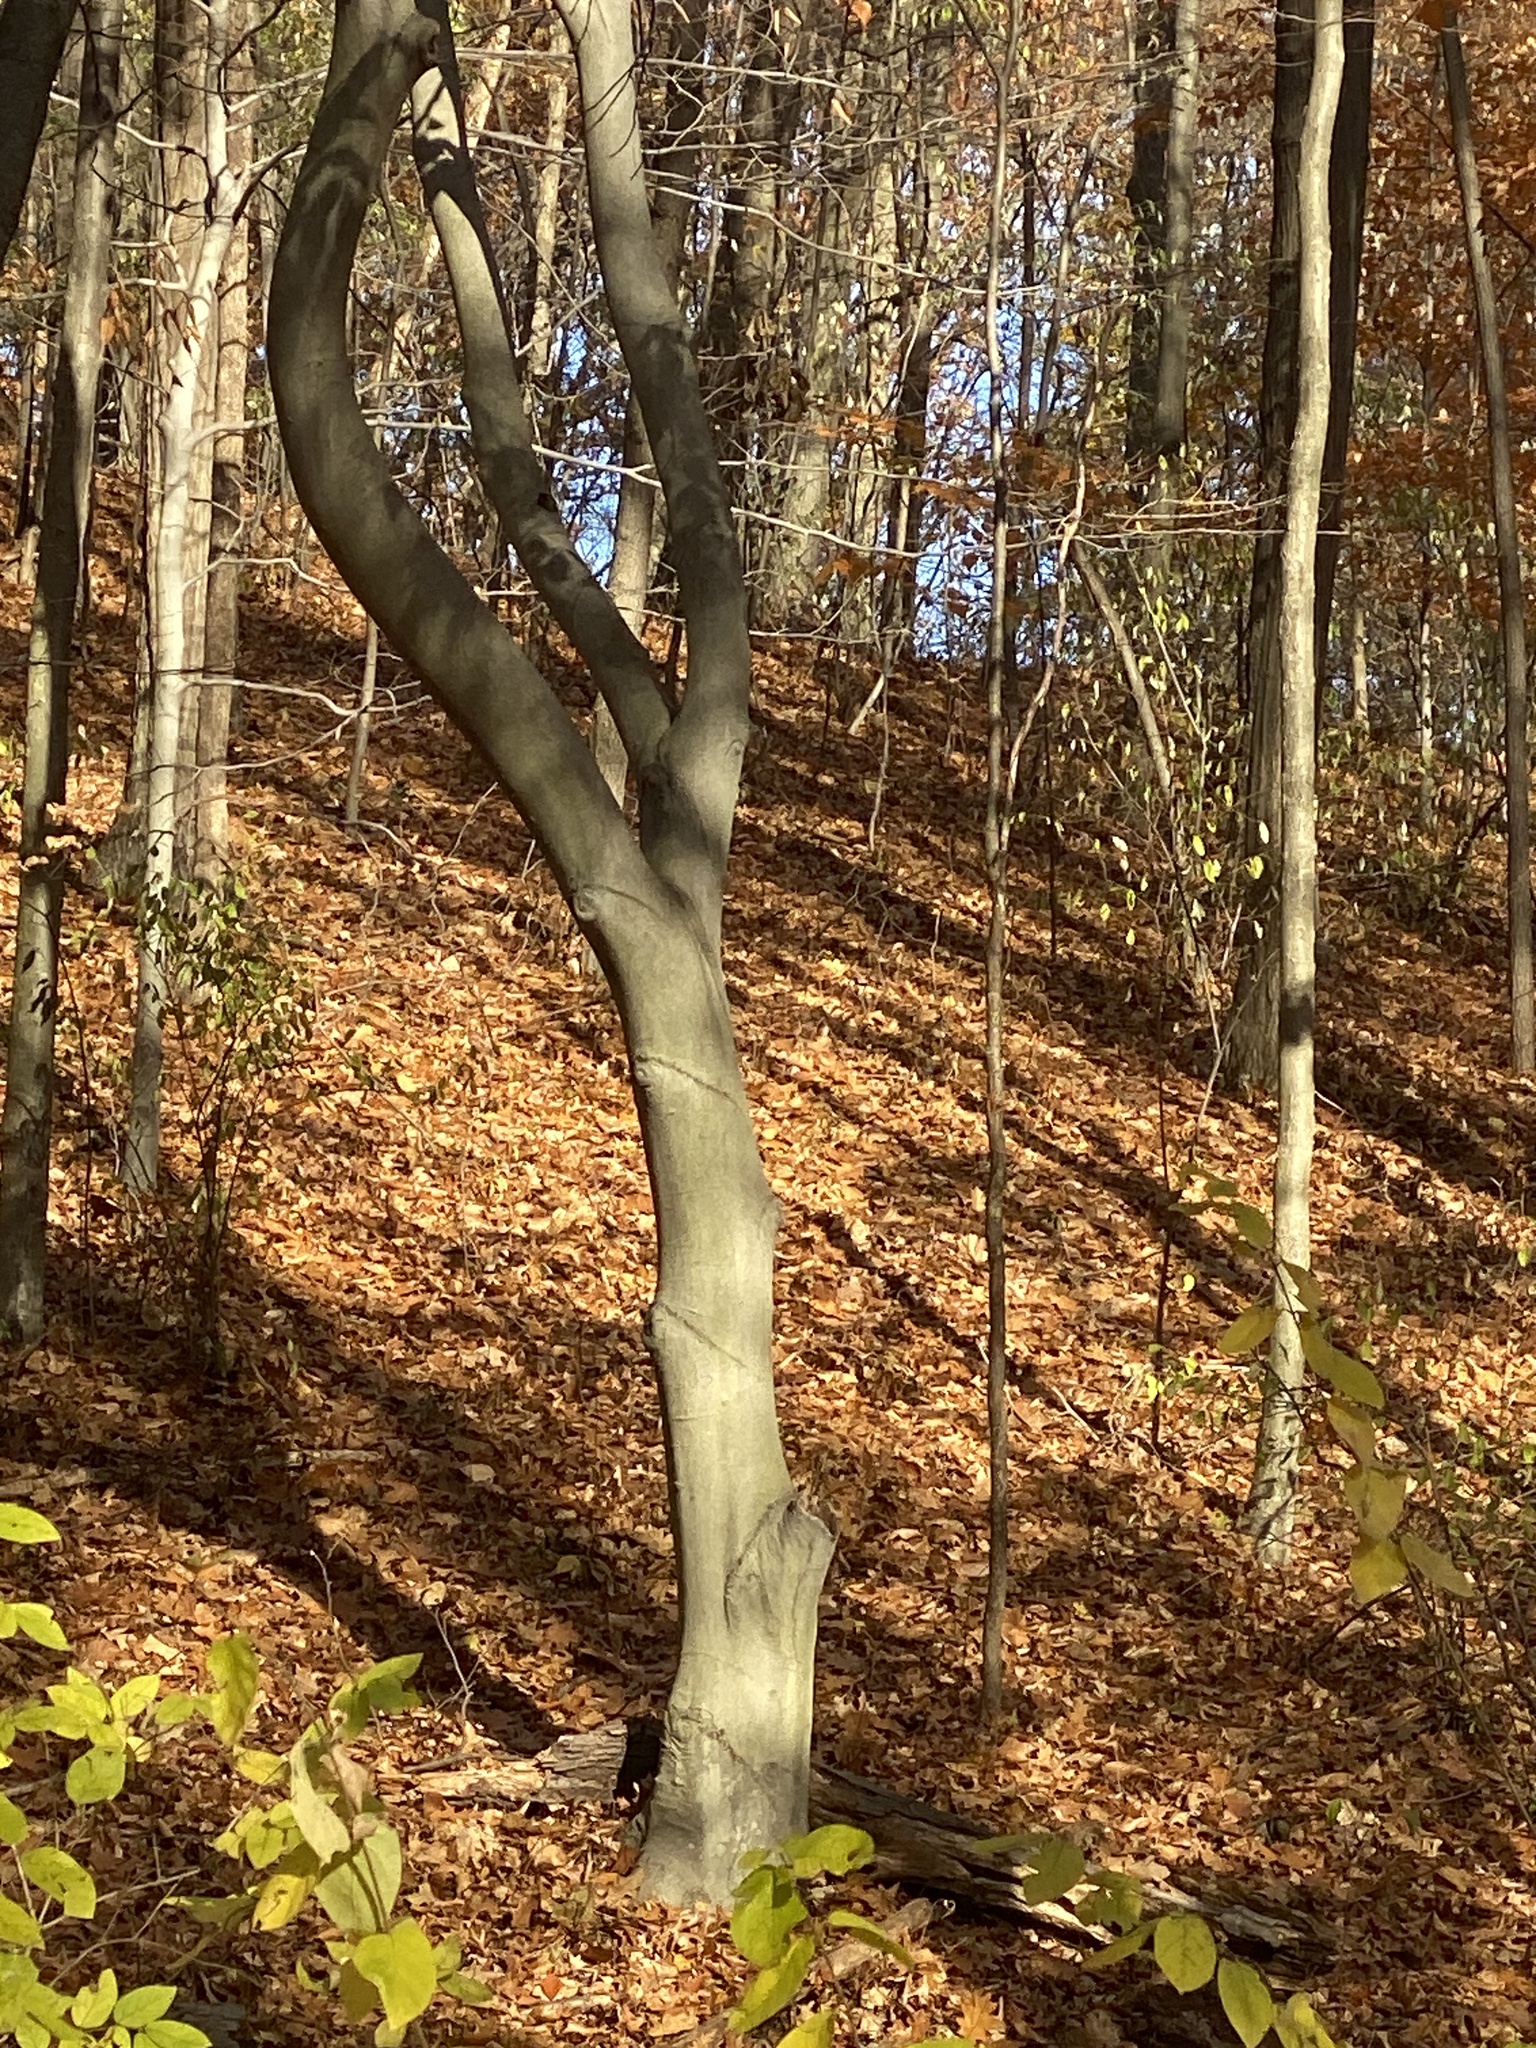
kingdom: Plantae
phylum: Tracheophyta
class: Magnoliopsida
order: Fagales
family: Fagaceae
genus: Fagus
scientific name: Fagus grandifolia
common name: American beech
